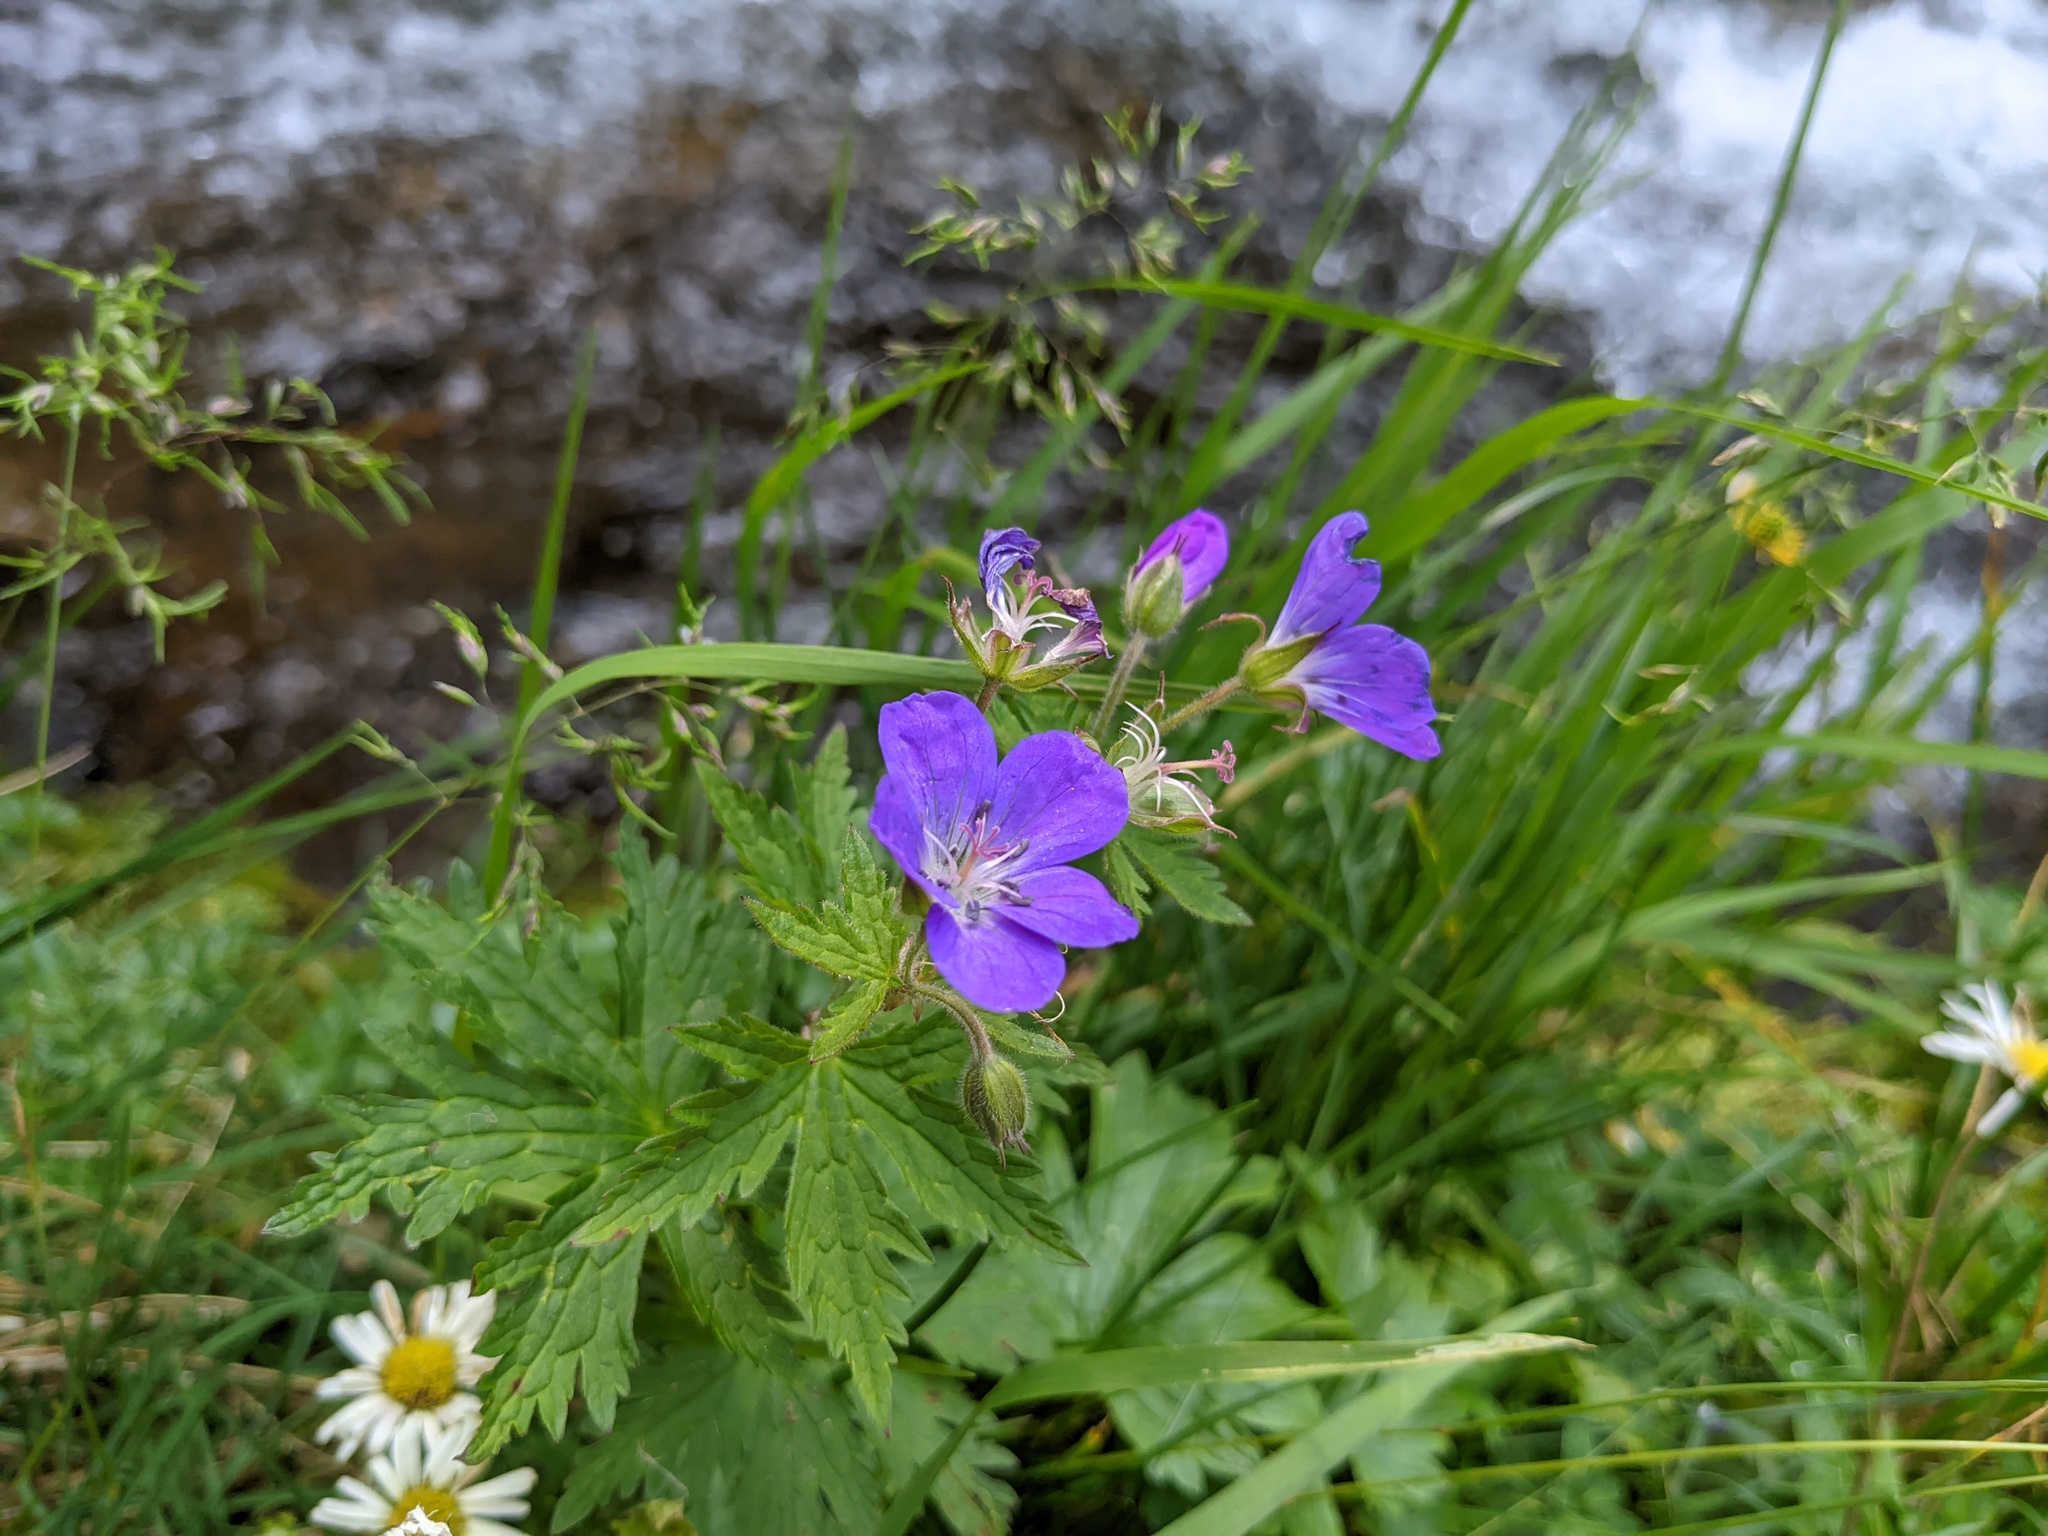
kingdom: Plantae
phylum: Tracheophyta
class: Magnoliopsida
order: Geraniales
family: Geraniaceae
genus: Geranium
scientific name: Geranium sylvaticum
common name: Wood crane's-bill
